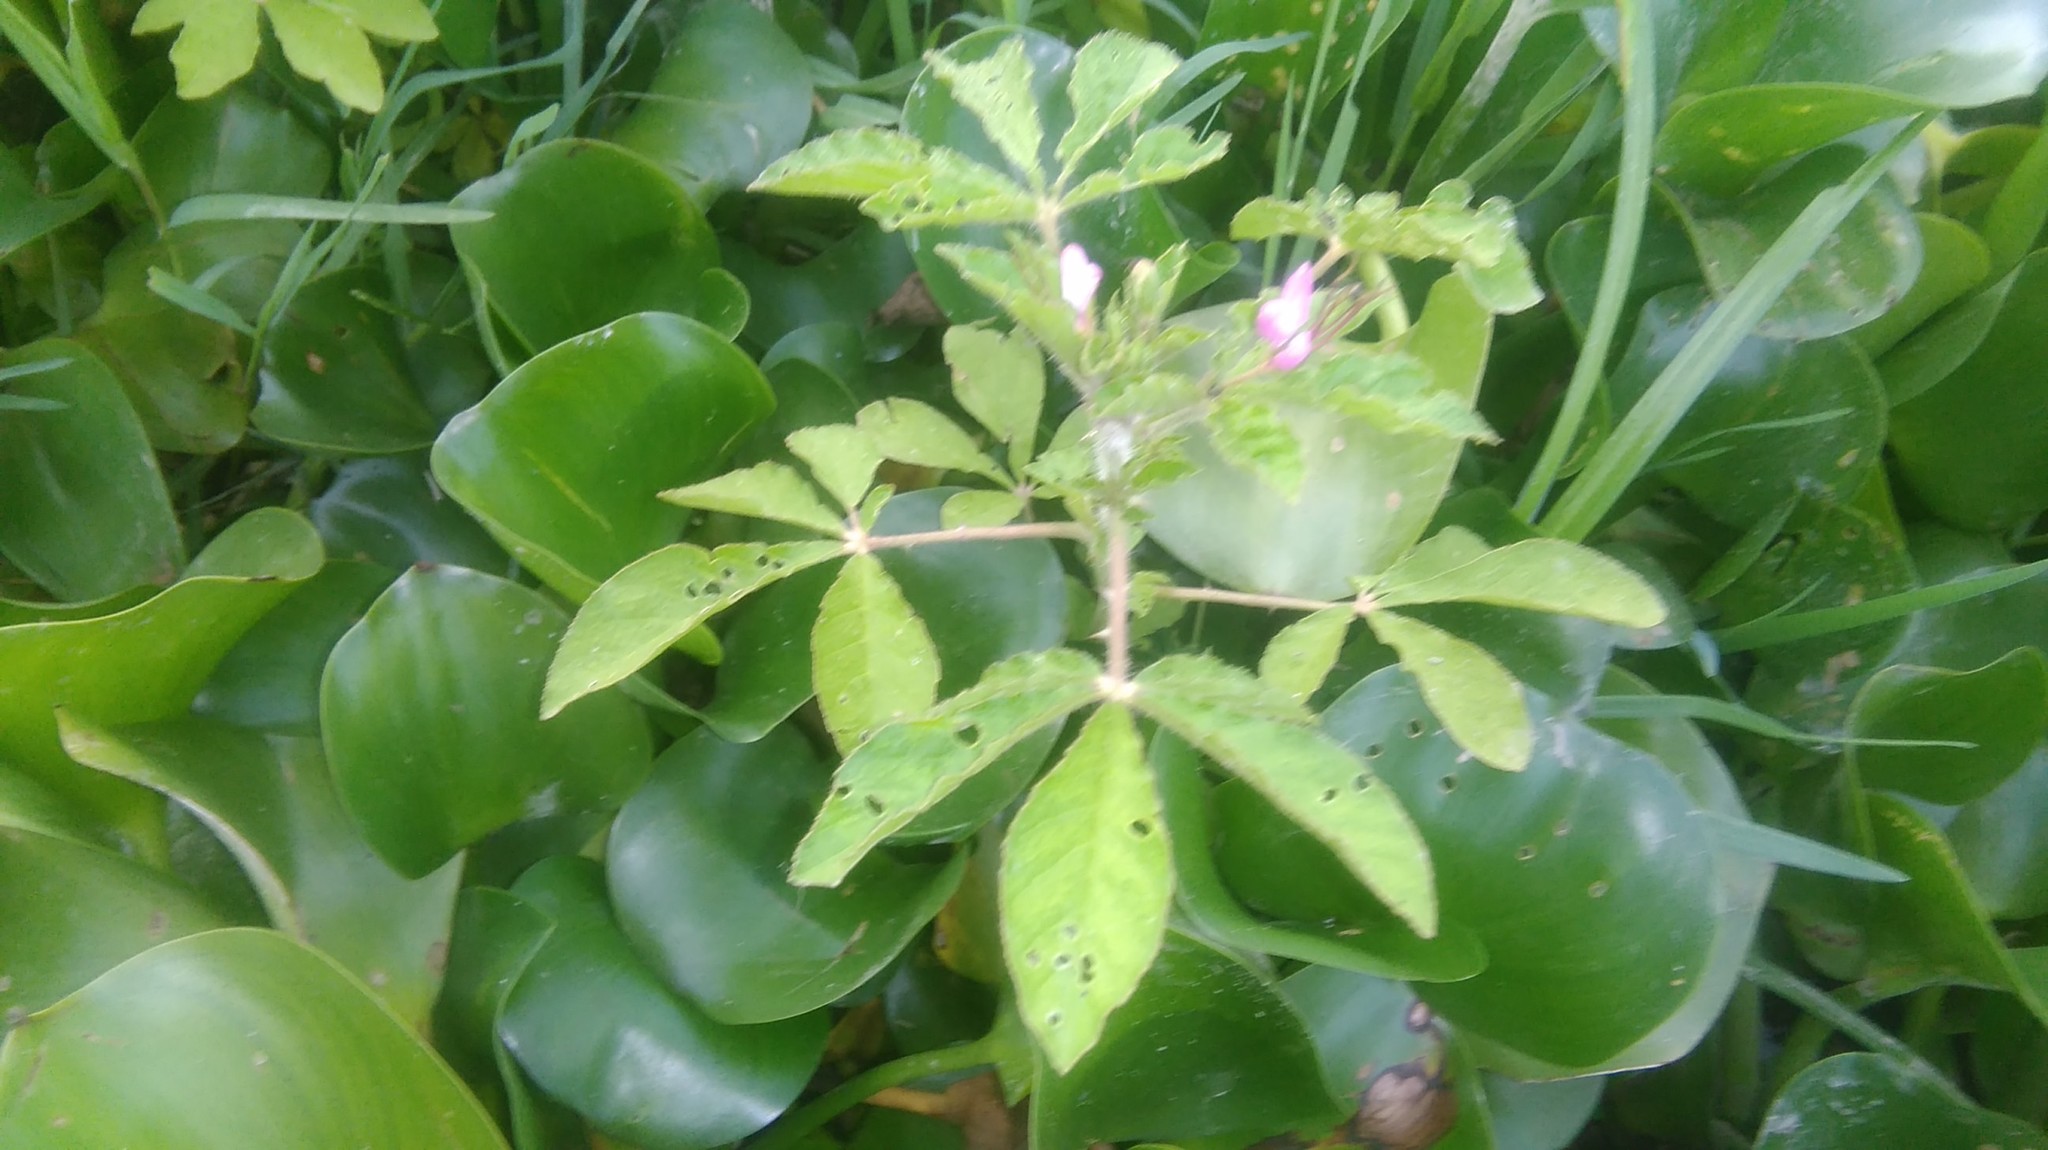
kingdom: Plantae
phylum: Tracheophyta
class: Magnoliopsida
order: Brassicales
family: Cleomaceae
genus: Tarenaya
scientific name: Tarenaya titubans
